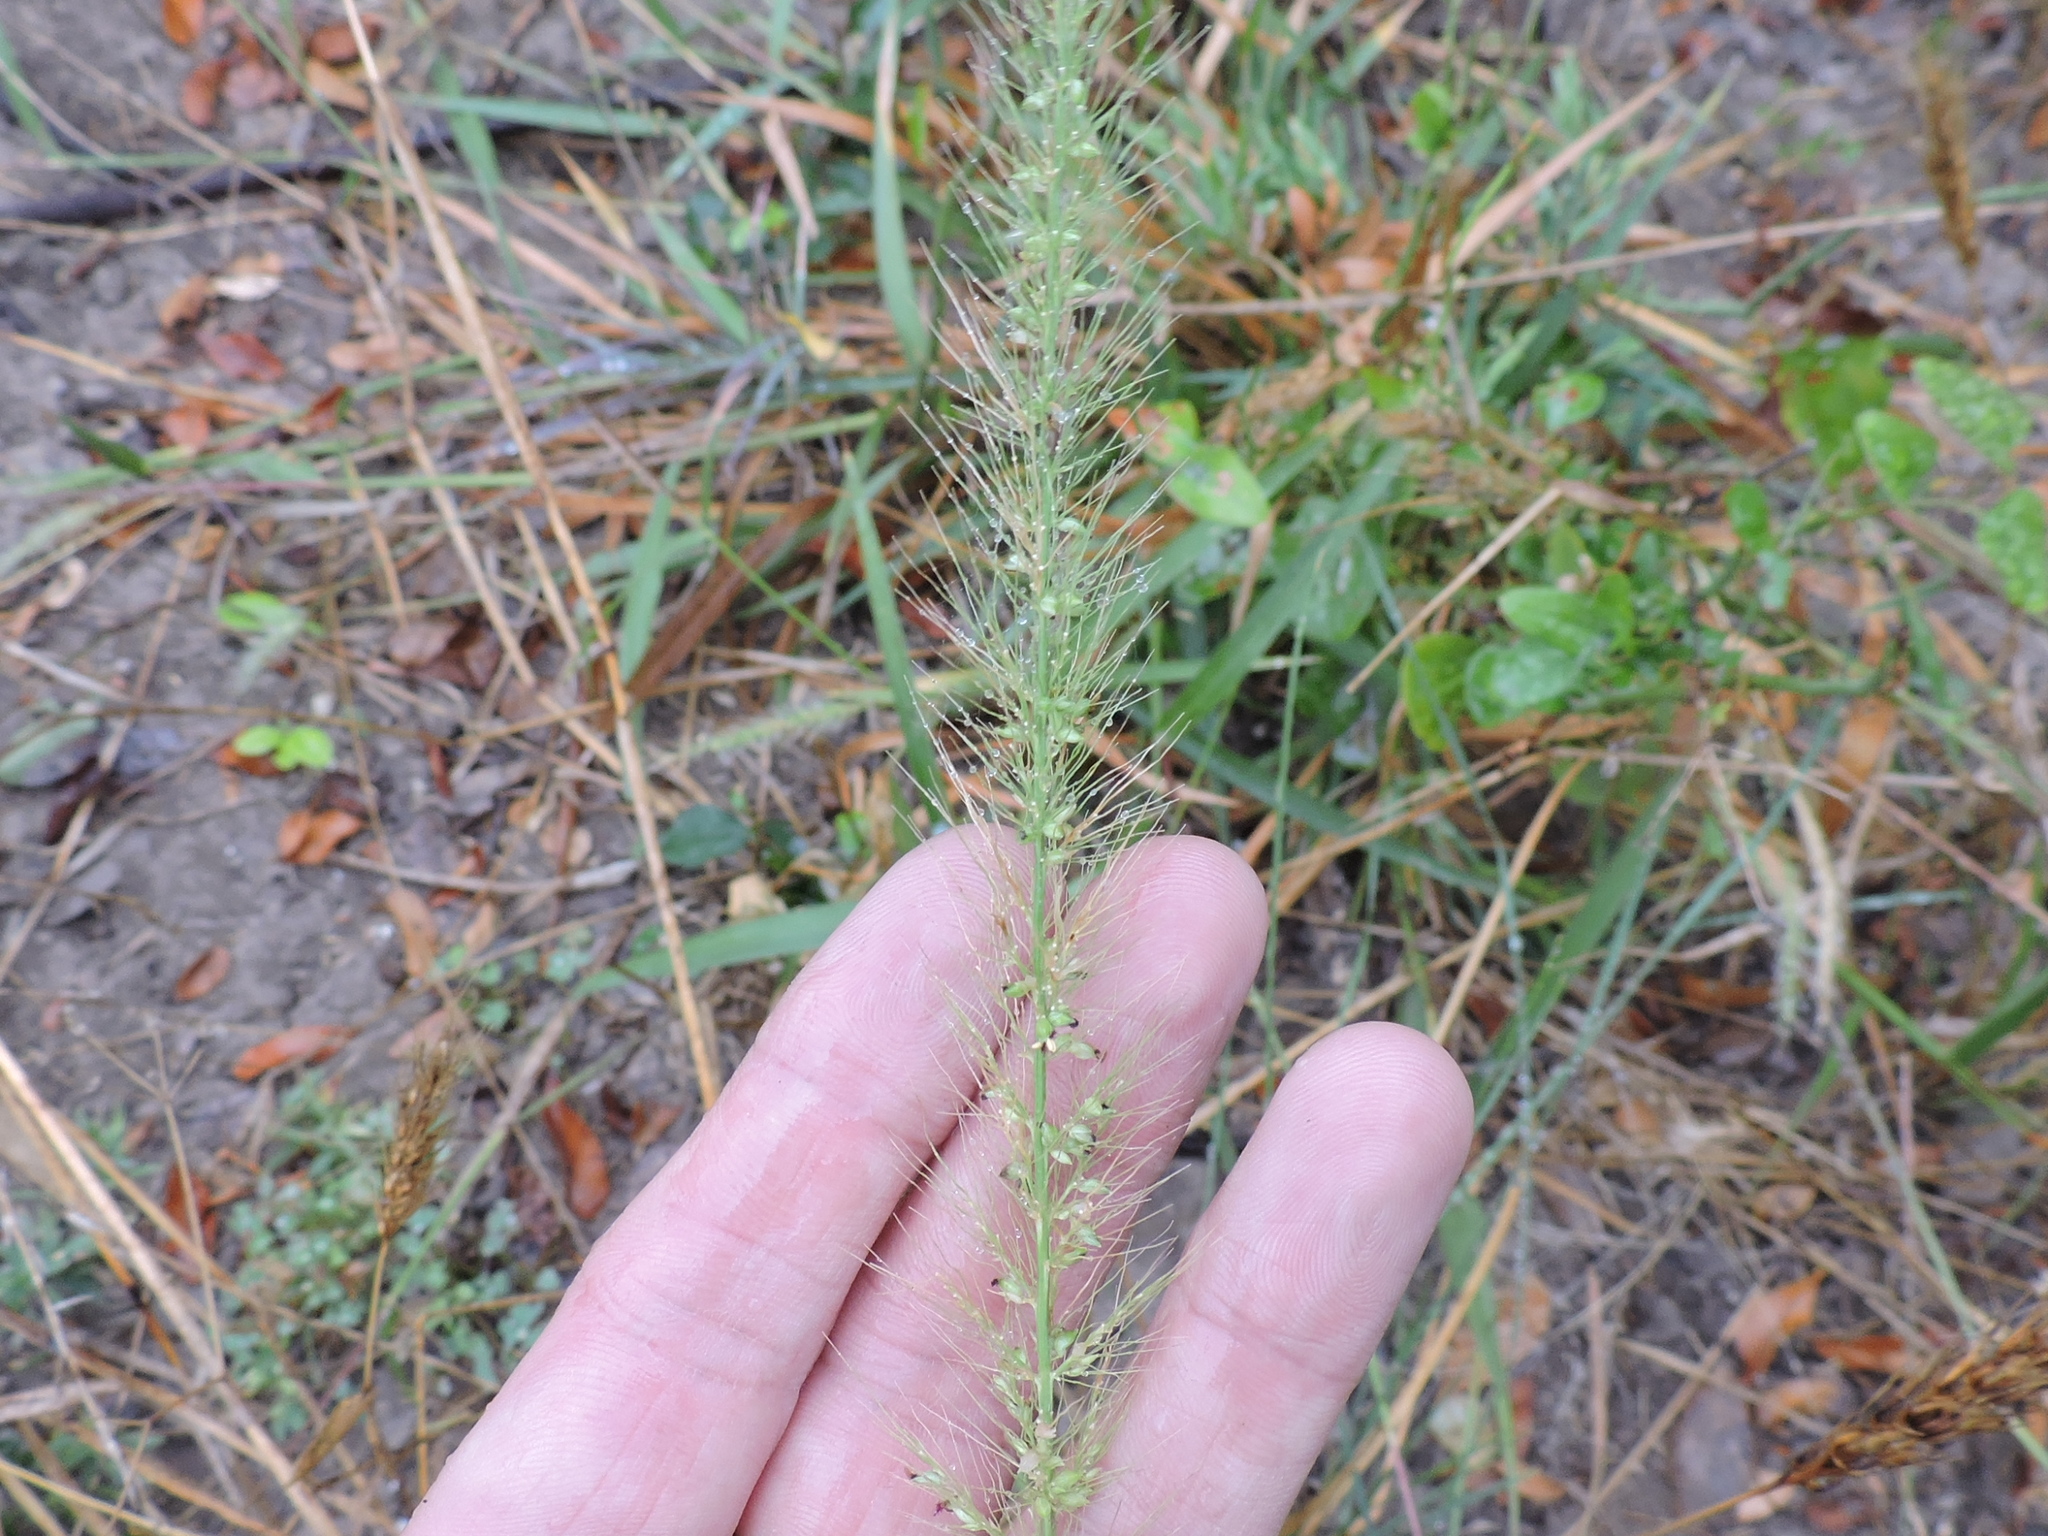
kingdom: Plantae
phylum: Tracheophyta
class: Liliopsida
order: Poales
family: Poaceae
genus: Setaria
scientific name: Setaria scheelei
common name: Southwestern bristle grass
